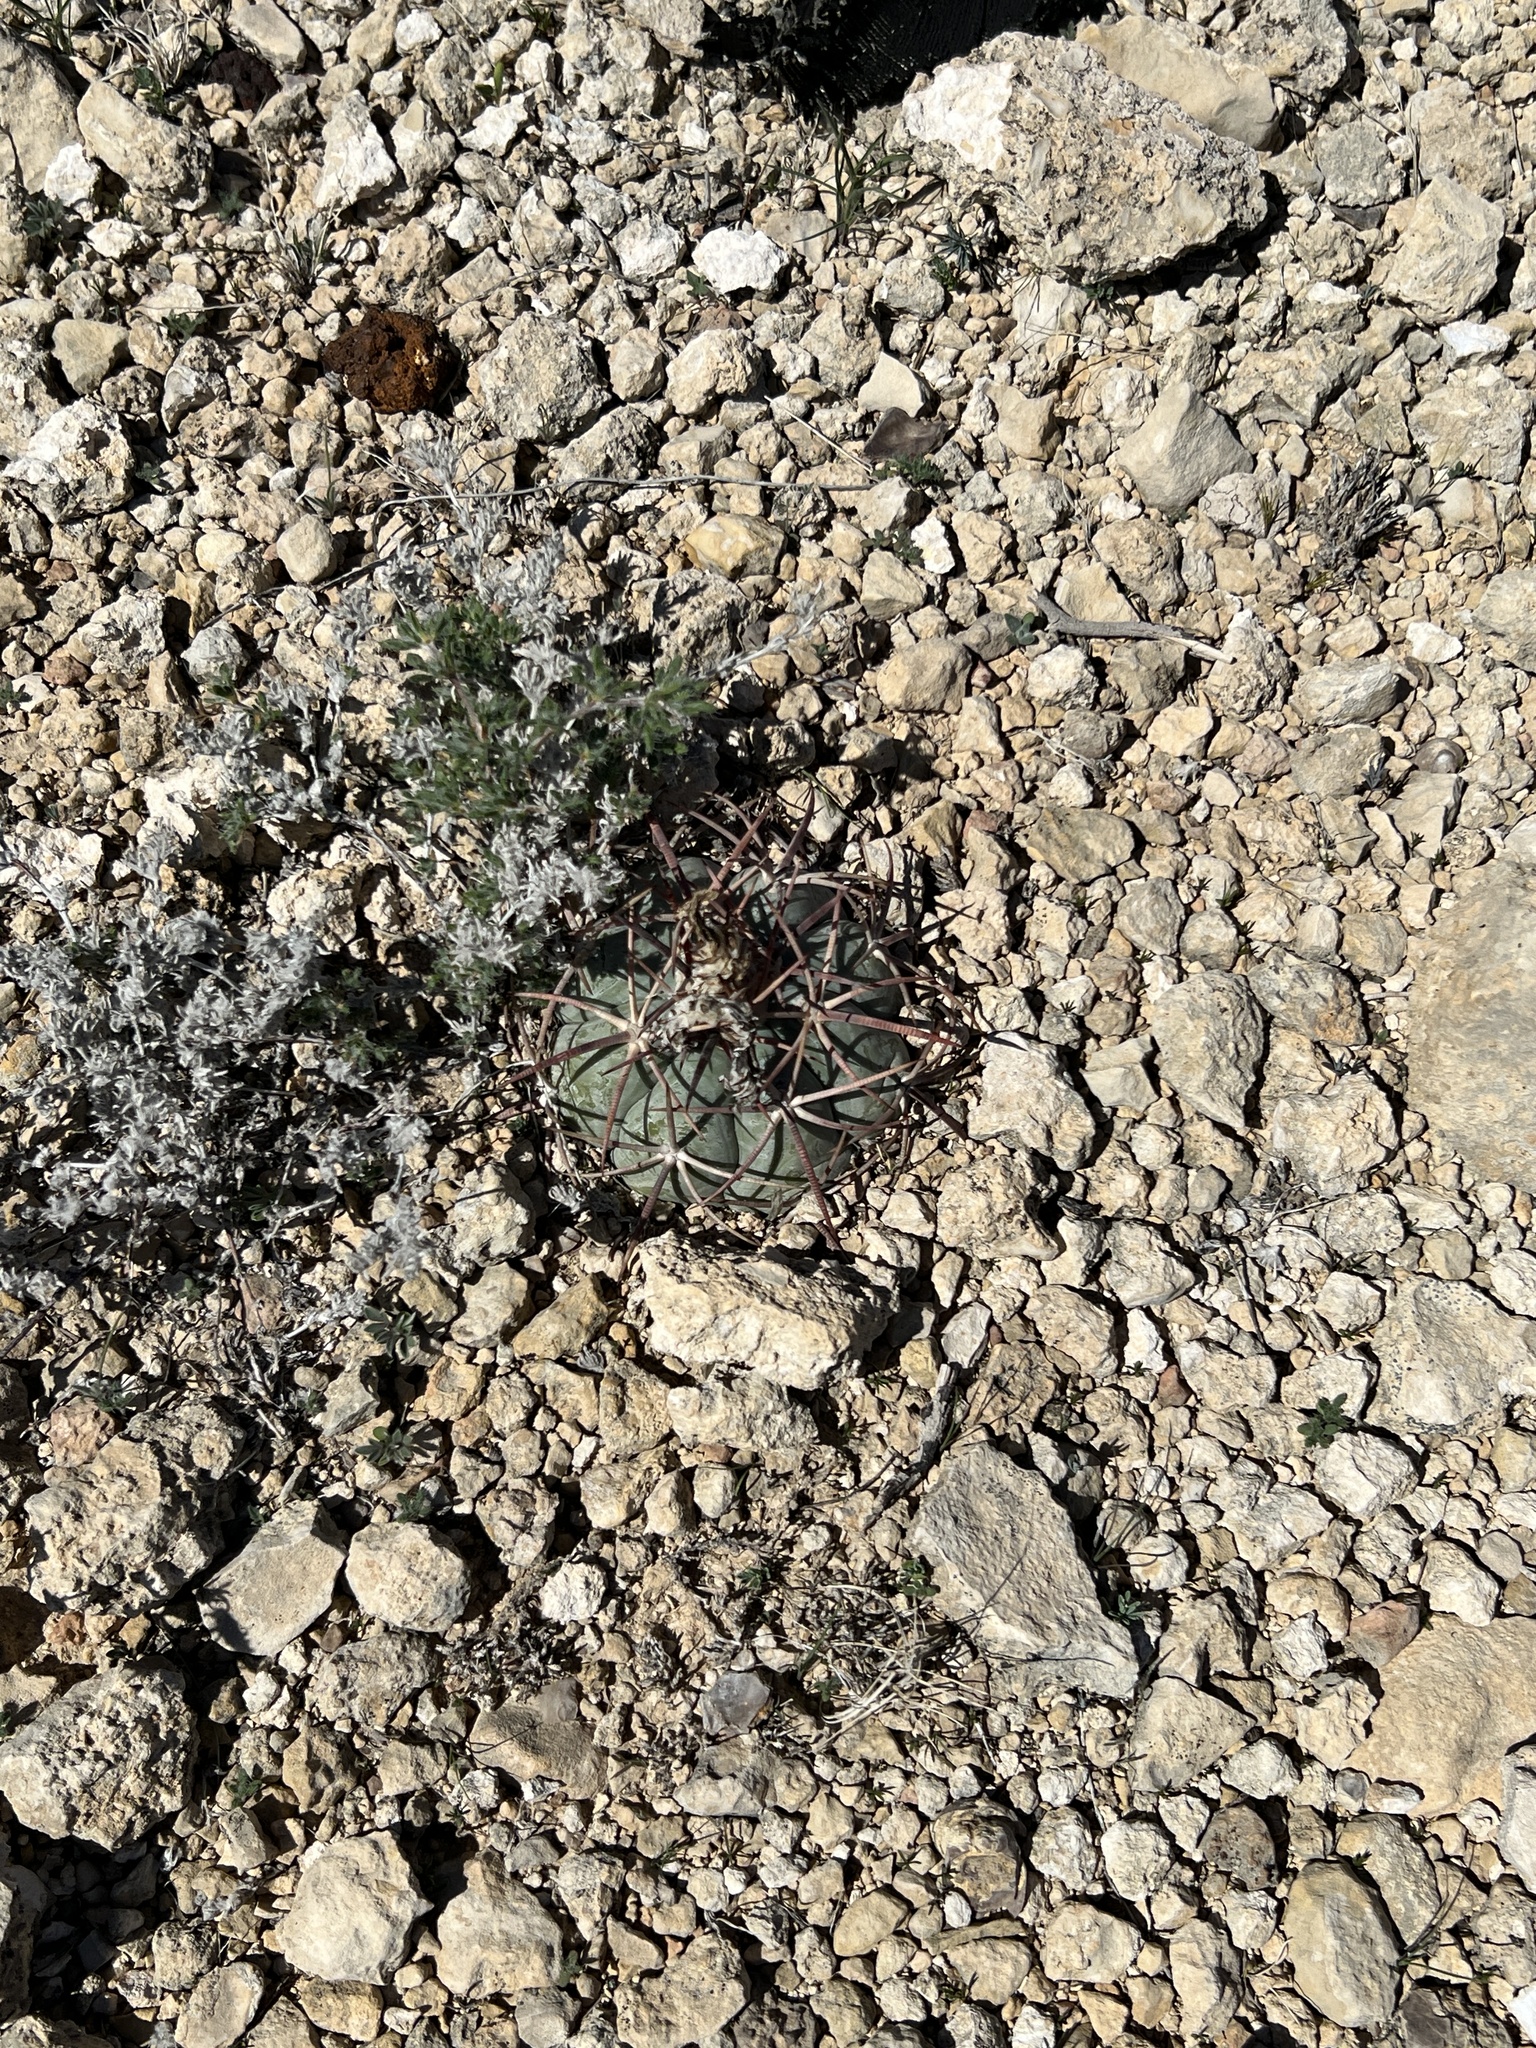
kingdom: Plantae
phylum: Tracheophyta
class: Magnoliopsida
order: Caryophyllales
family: Cactaceae
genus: Echinocactus
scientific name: Echinocactus horizonthalonius
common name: Devilshead
